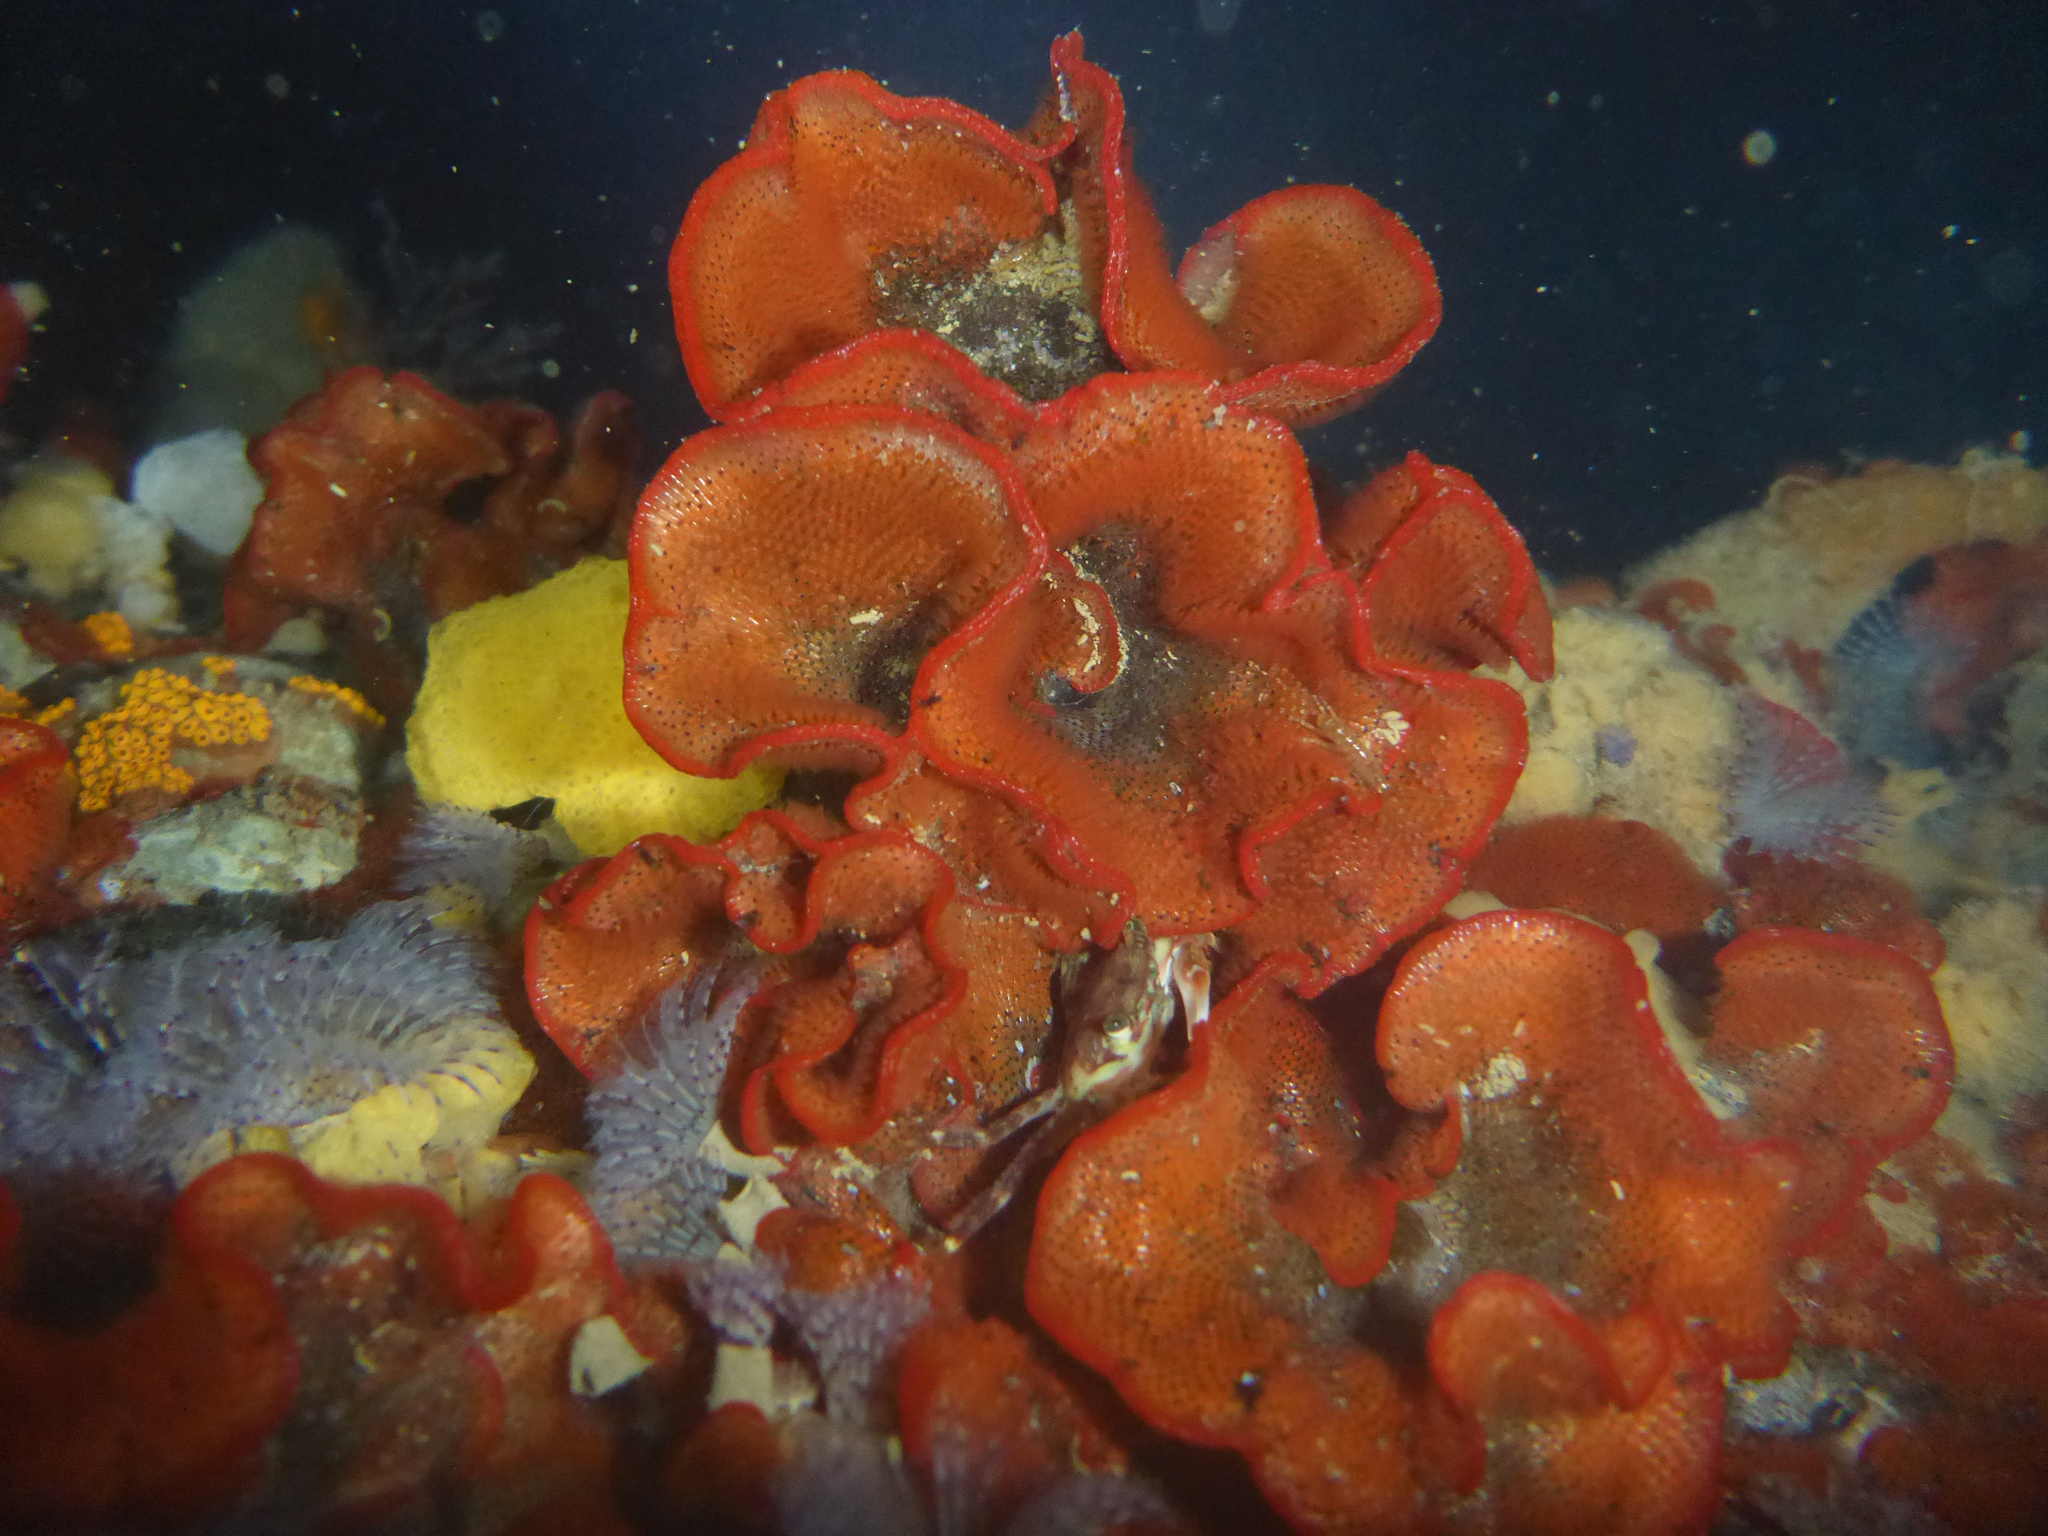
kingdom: Animalia
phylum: Bryozoa
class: Gymnolaemata
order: Cheilostomatida
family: Watersiporidae
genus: Watersipora
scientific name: Watersipora subtorquata
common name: Bryozoan
